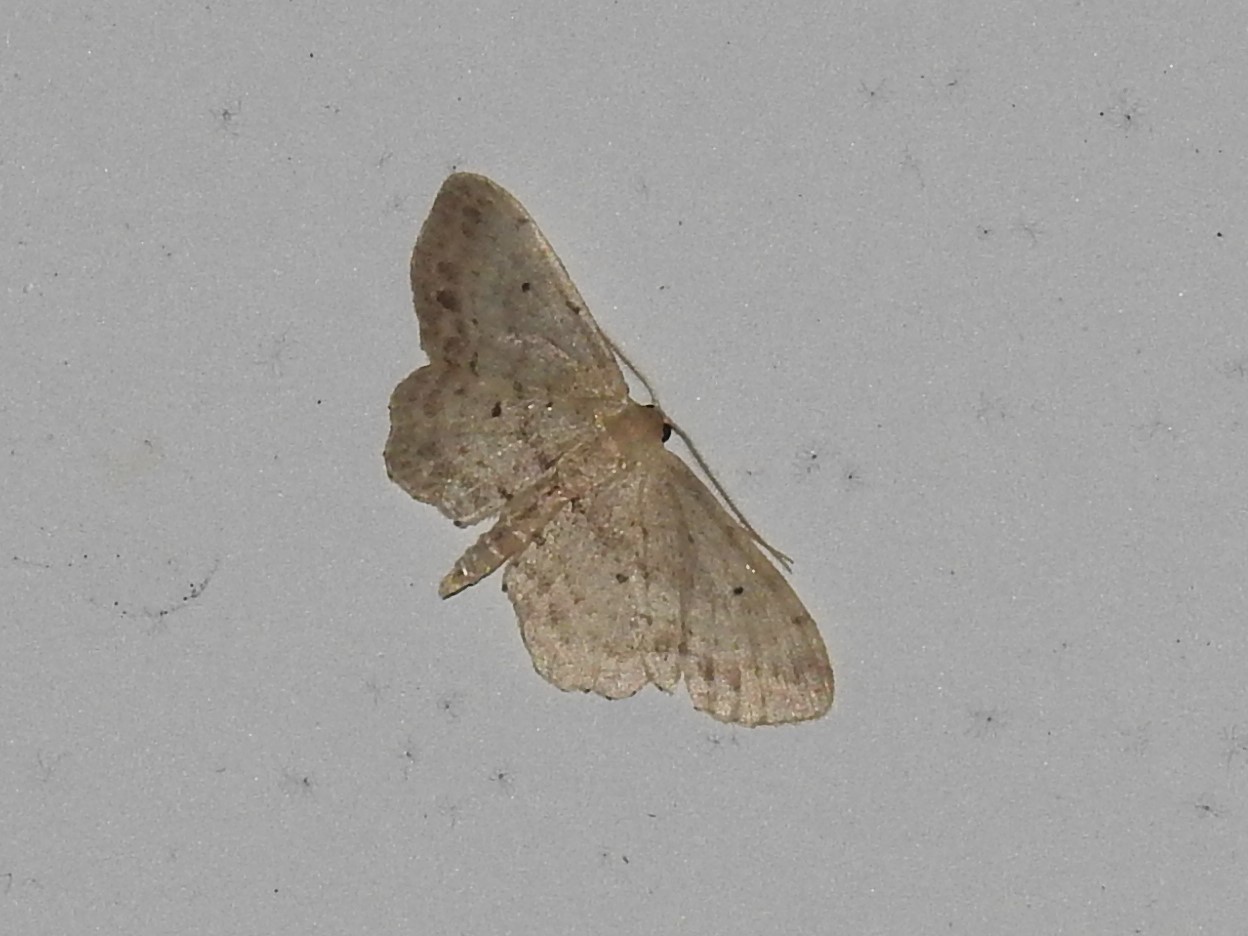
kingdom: Animalia
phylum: Arthropoda
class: Insecta
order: Lepidoptera
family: Geometridae
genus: Idaea
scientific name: Idaea dimidiata
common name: Single-dotted wave
